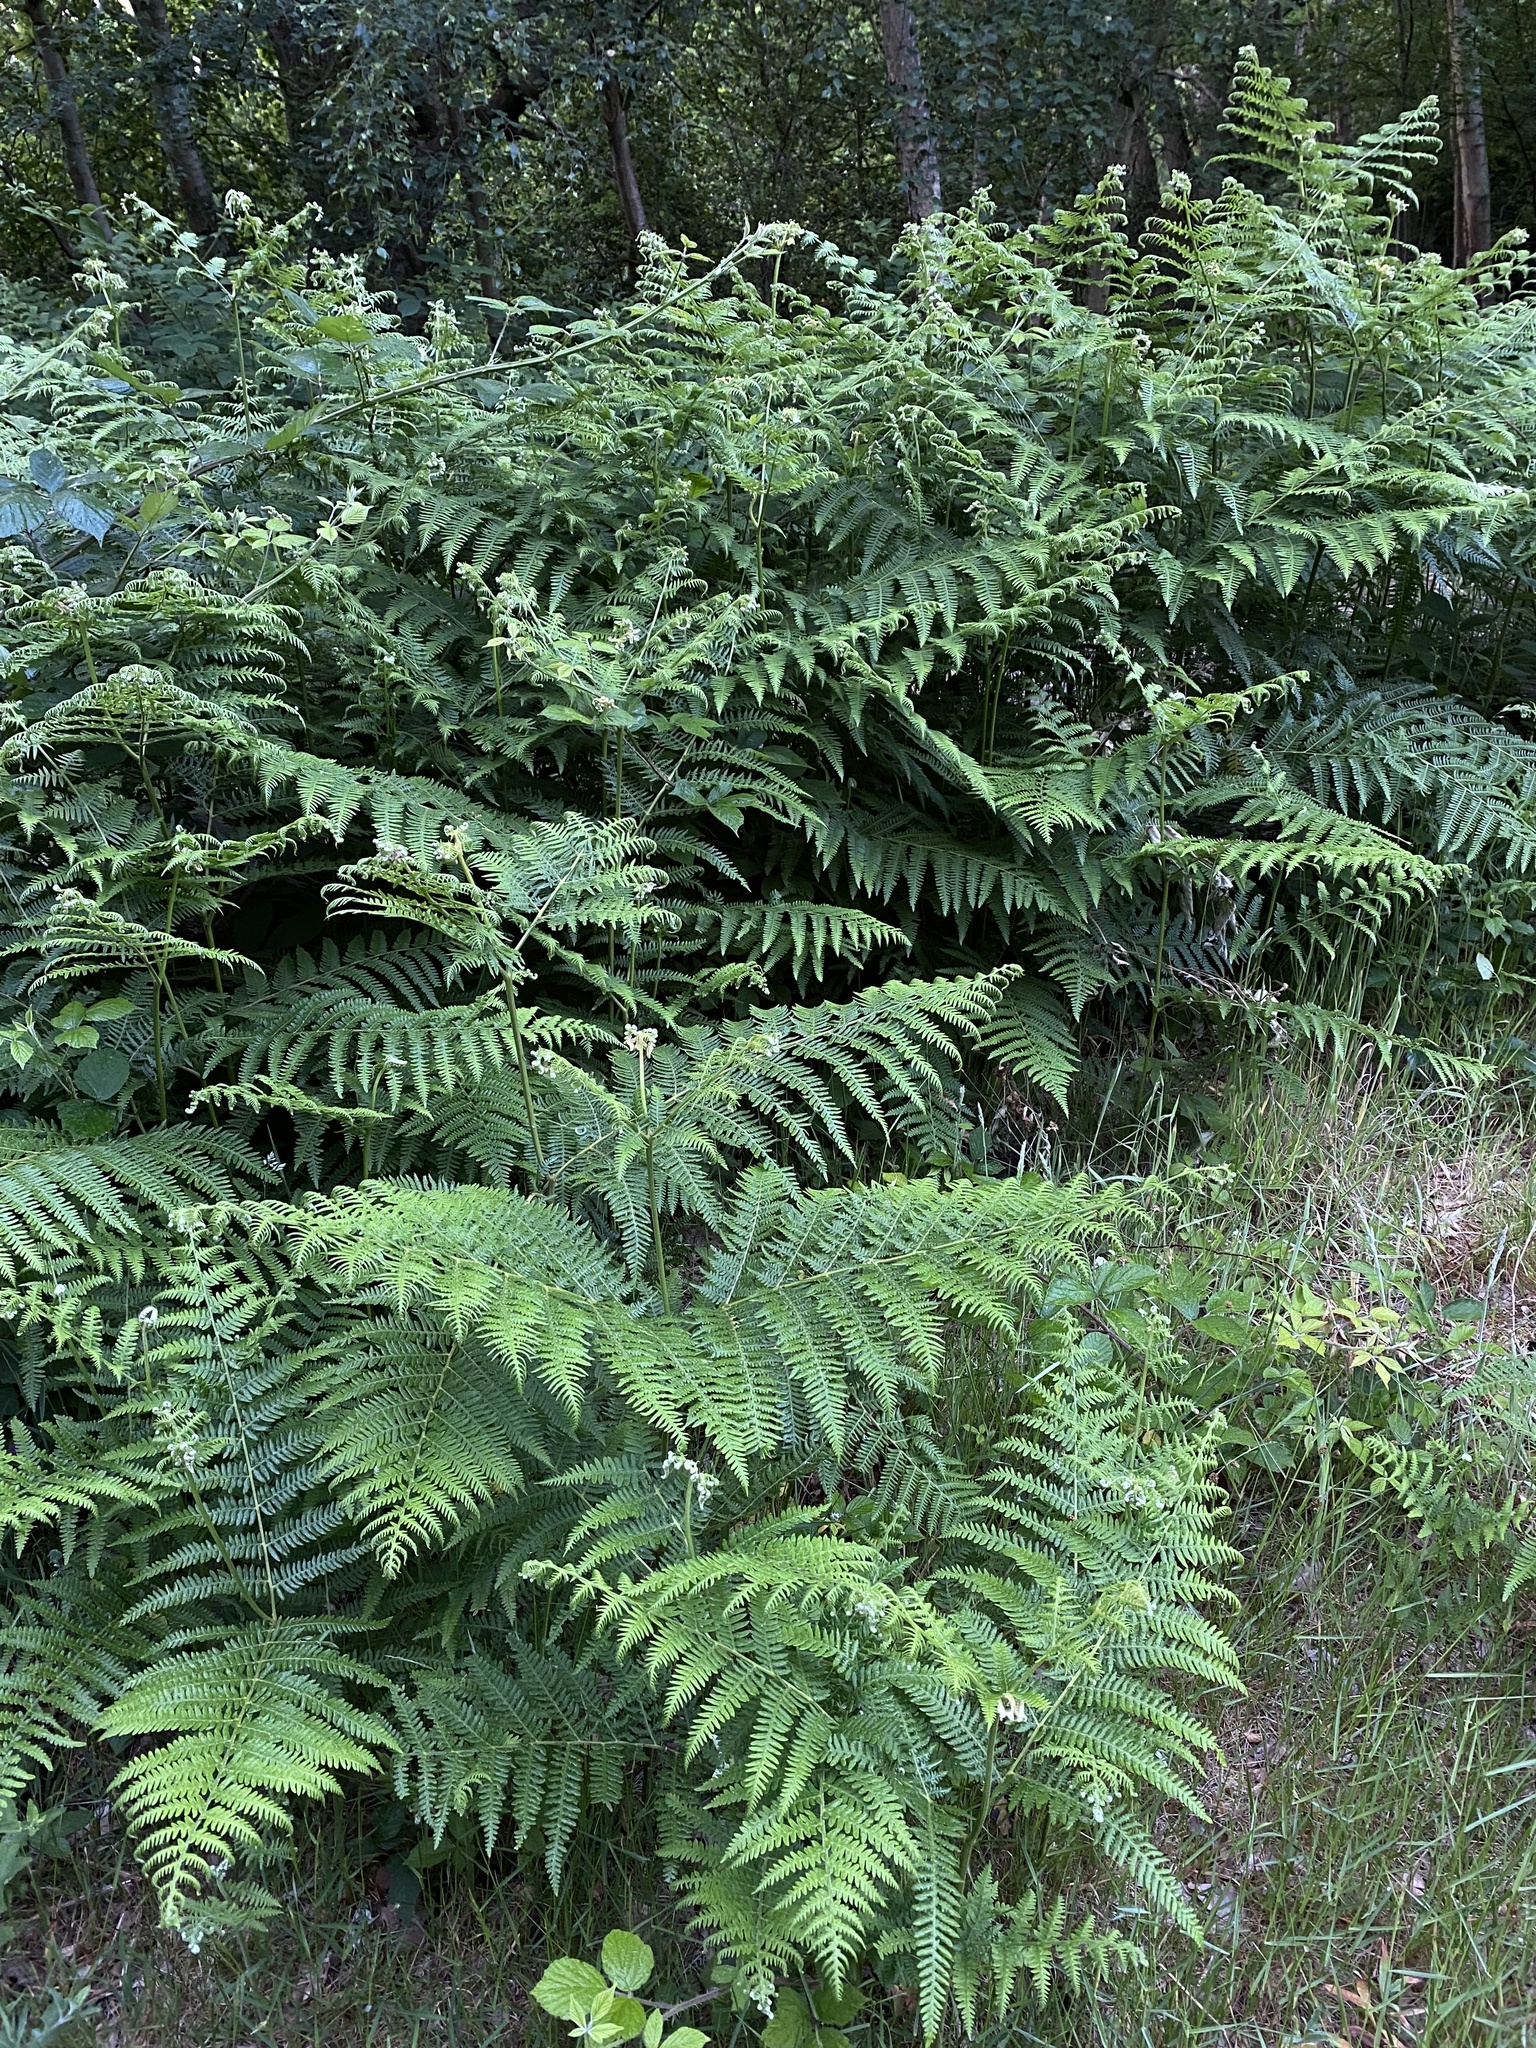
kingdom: Plantae
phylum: Tracheophyta
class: Polypodiopsida
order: Polypodiales
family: Dennstaedtiaceae
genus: Pteridium
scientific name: Pteridium aquilinum
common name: Bracken
